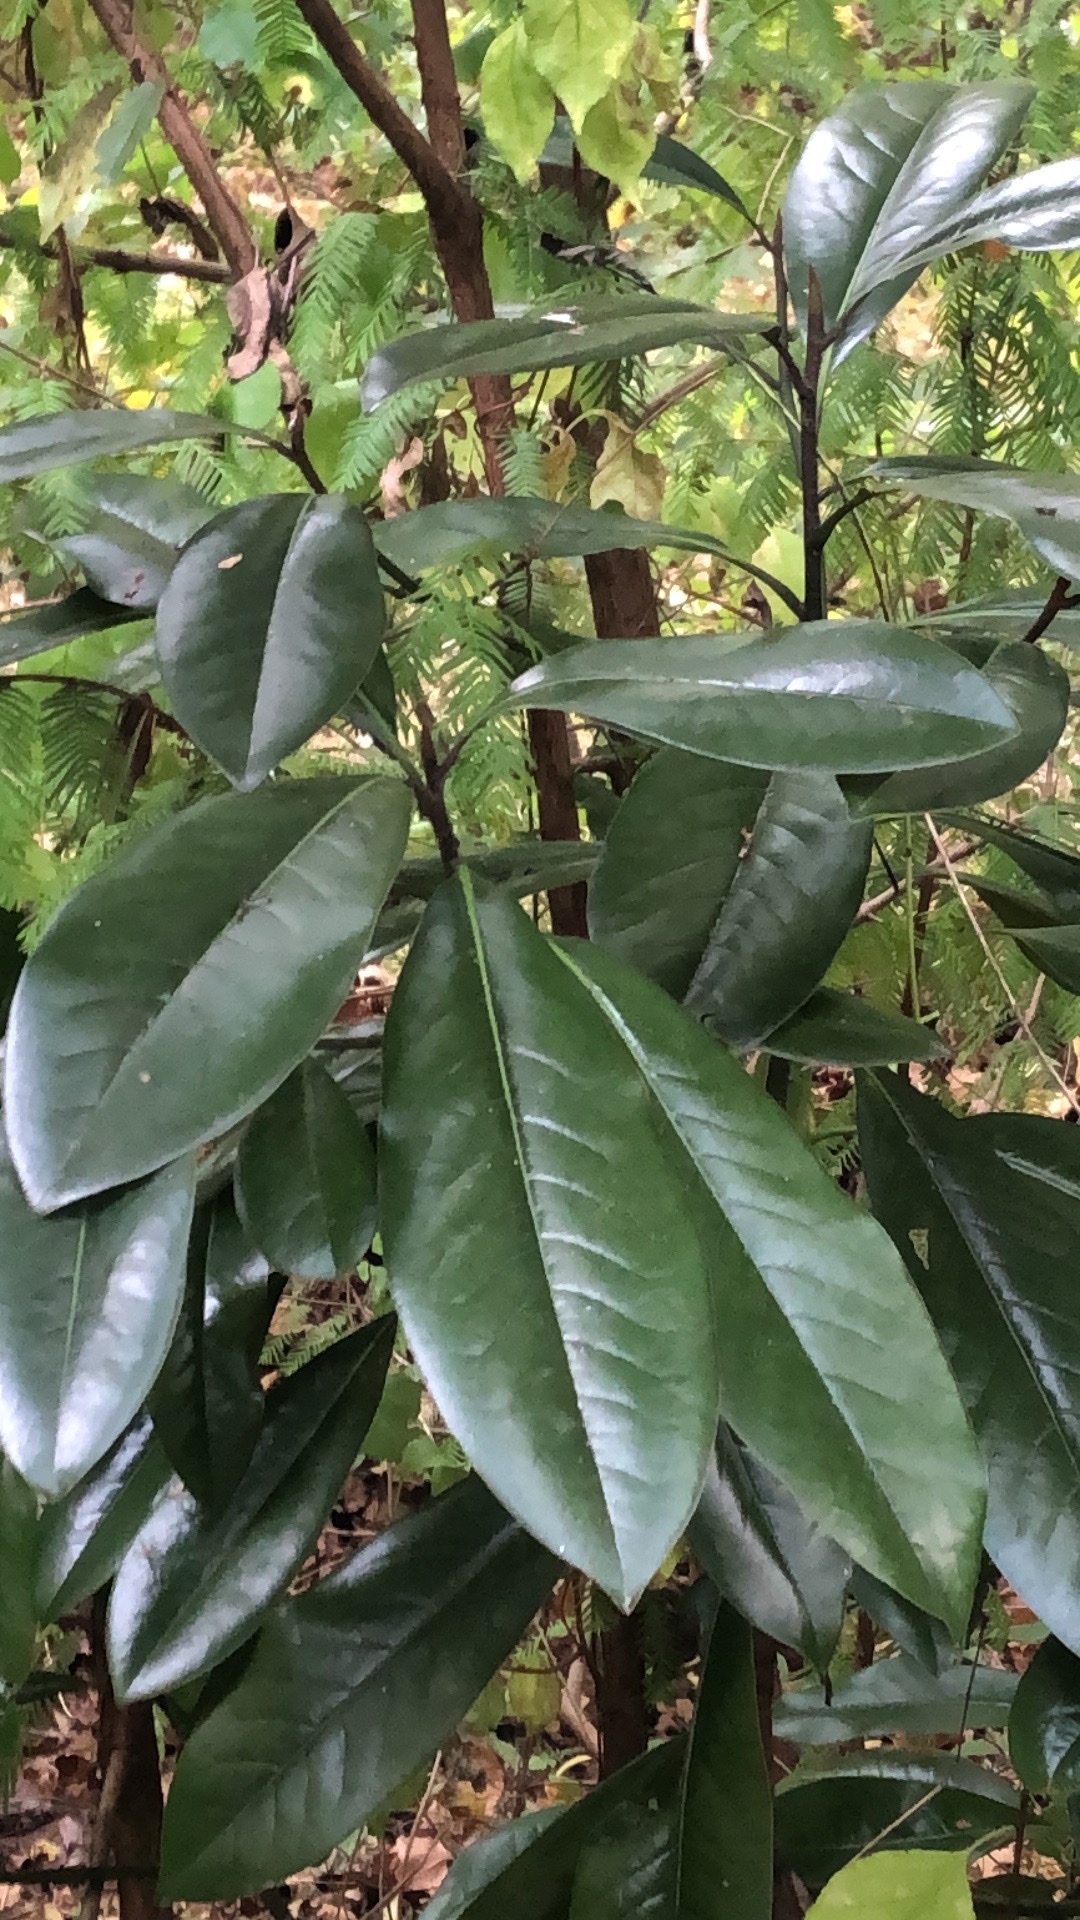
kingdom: Plantae
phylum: Tracheophyta
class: Magnoliopsida
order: Magnoliales
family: Magnoliaceae
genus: Magnolia
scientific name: Magnolia grandiflora
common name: Southern magnolia
